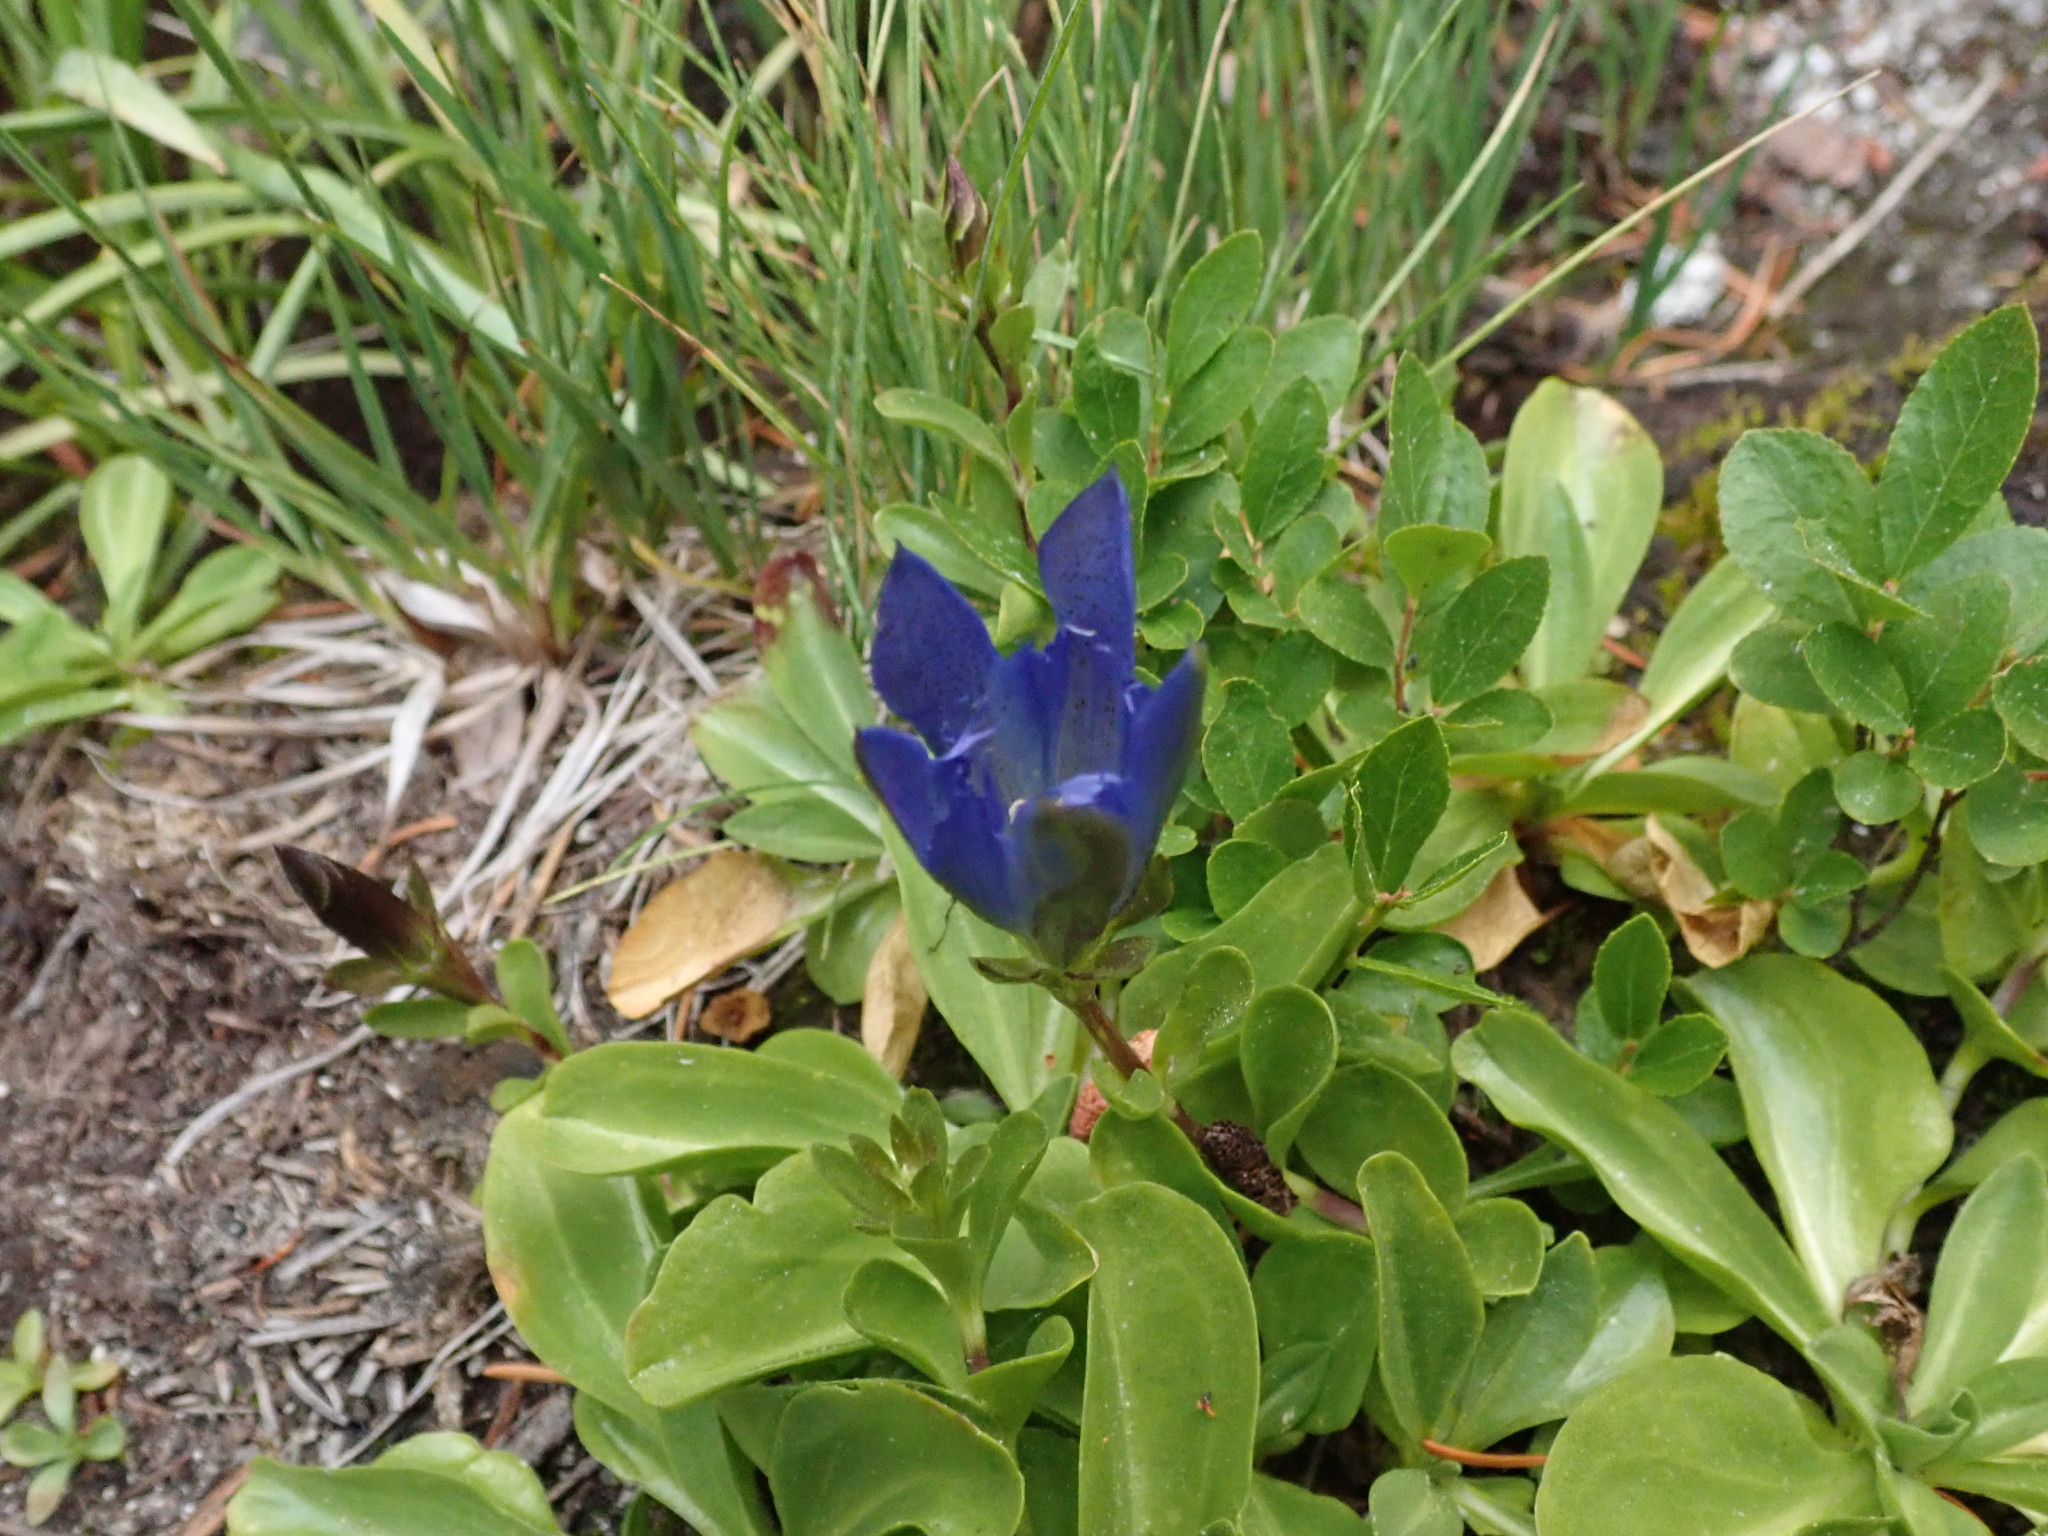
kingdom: Plantae
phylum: Tracheophyta
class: Magnoliopsida
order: Gentianales
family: Gentianaceae
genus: Gentiana
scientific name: Gentiana newberryi
